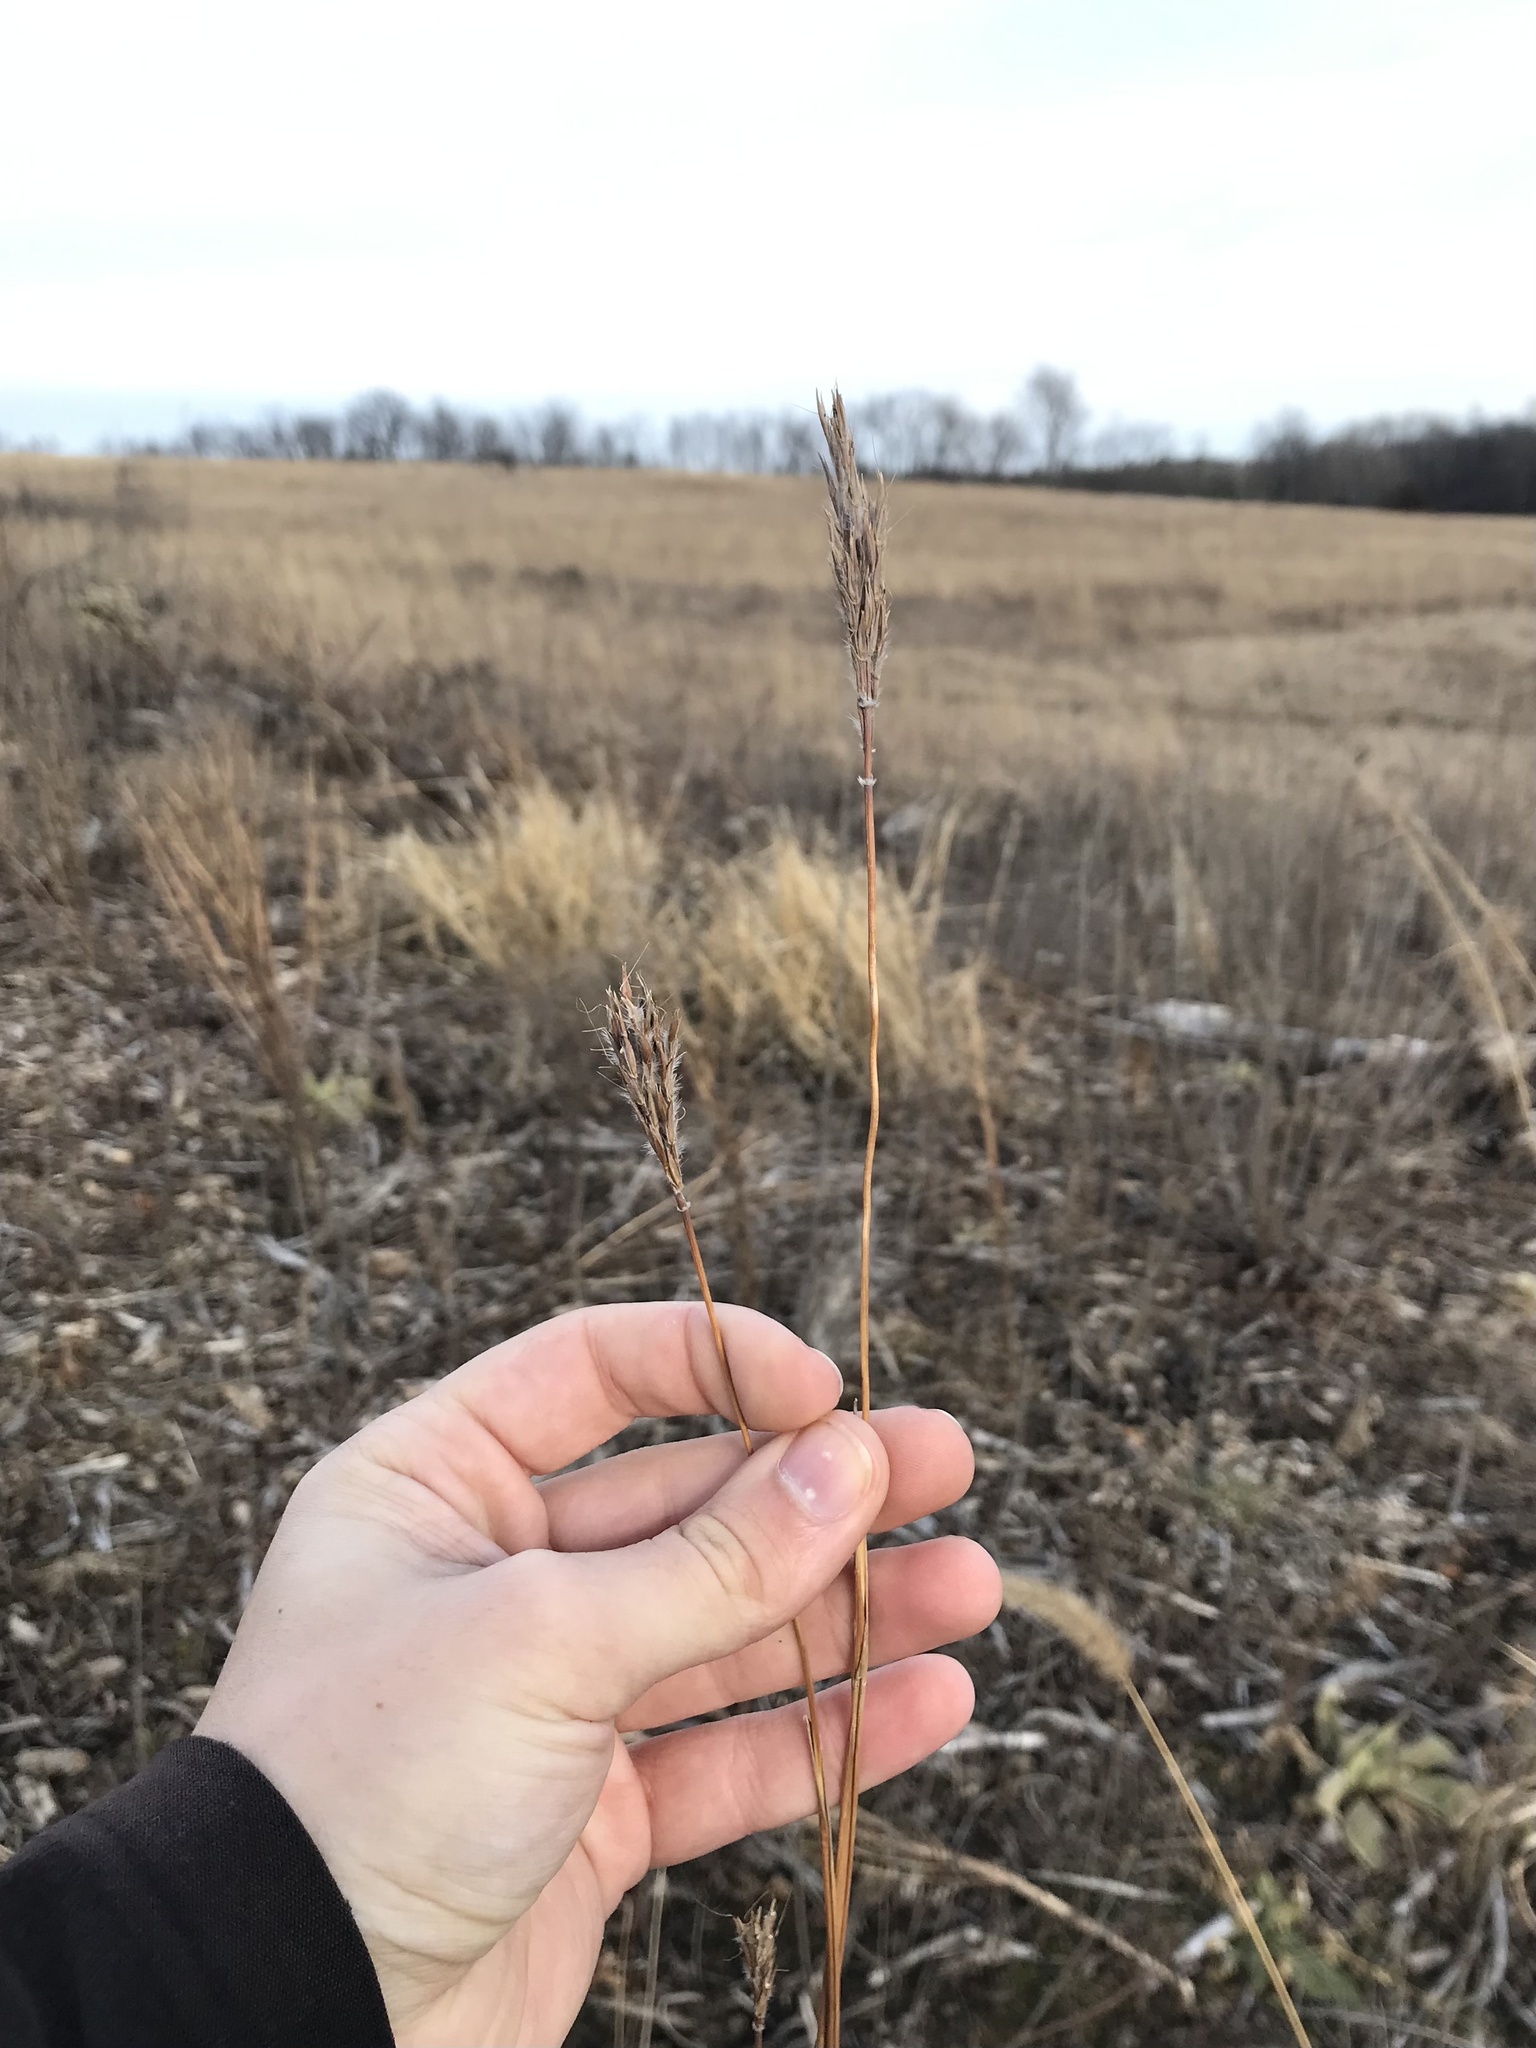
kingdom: Plantae
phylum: Tracheophyta
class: Liliopsida
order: Poales
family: Poaceae
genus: Andropogon
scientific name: Andropogon gerardi
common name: Big bluestem
